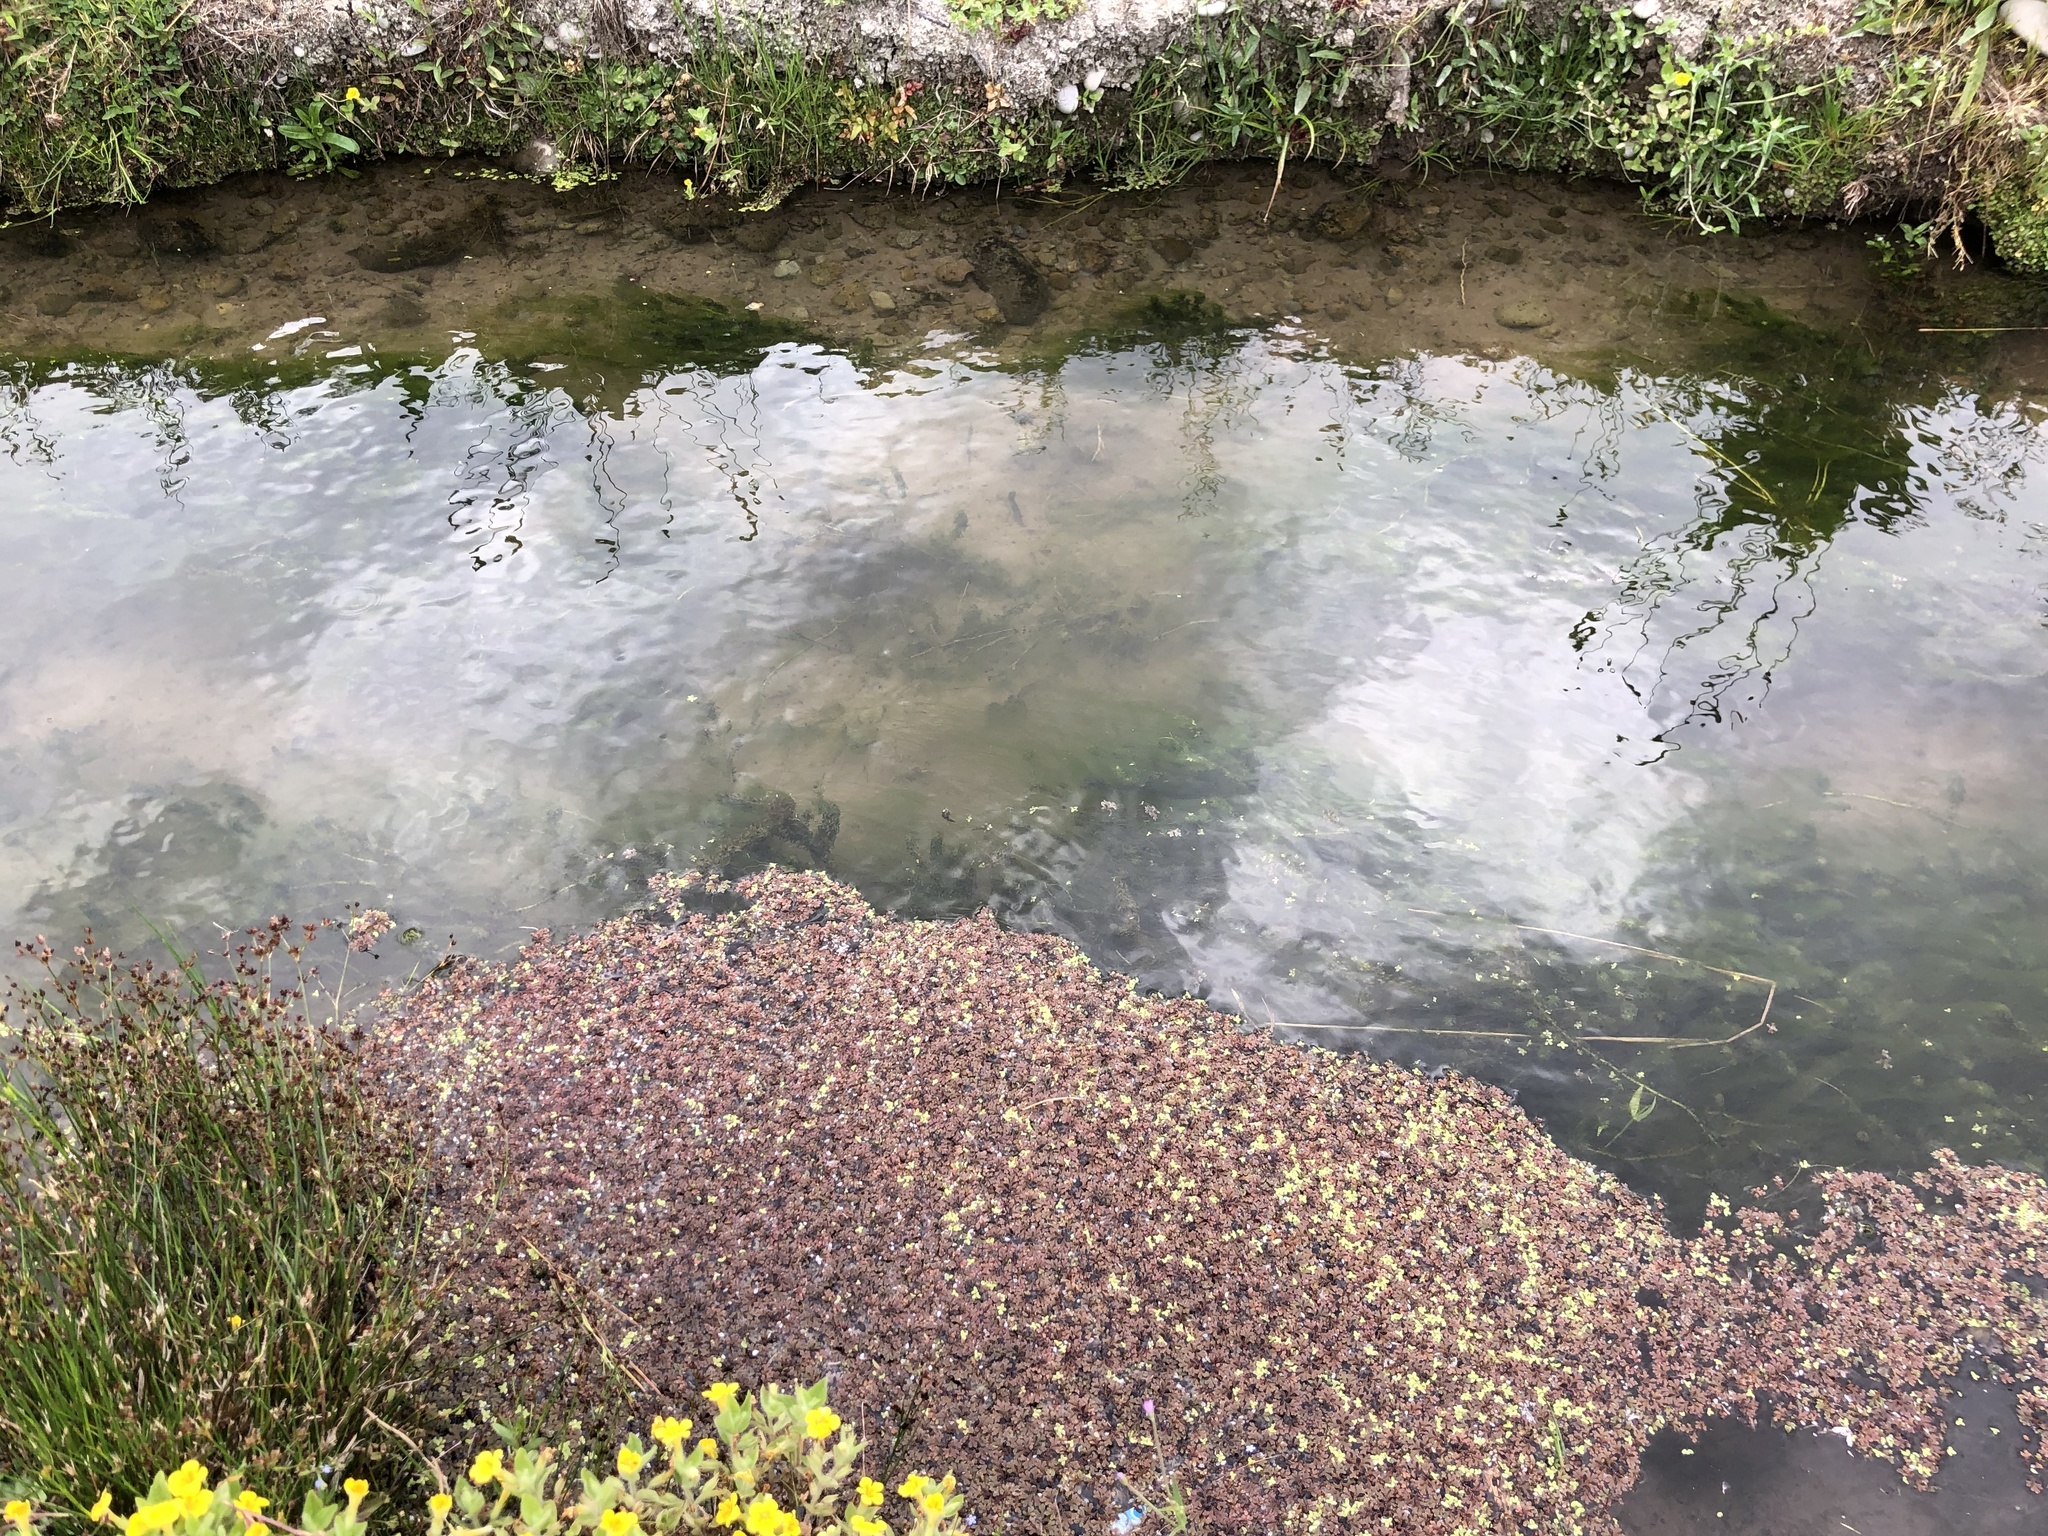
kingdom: Plantae
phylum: Tracheophyta
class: Polypodiopsida
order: Salviniales
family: Salviniaceae
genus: Azolla
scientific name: Azolla rubra
